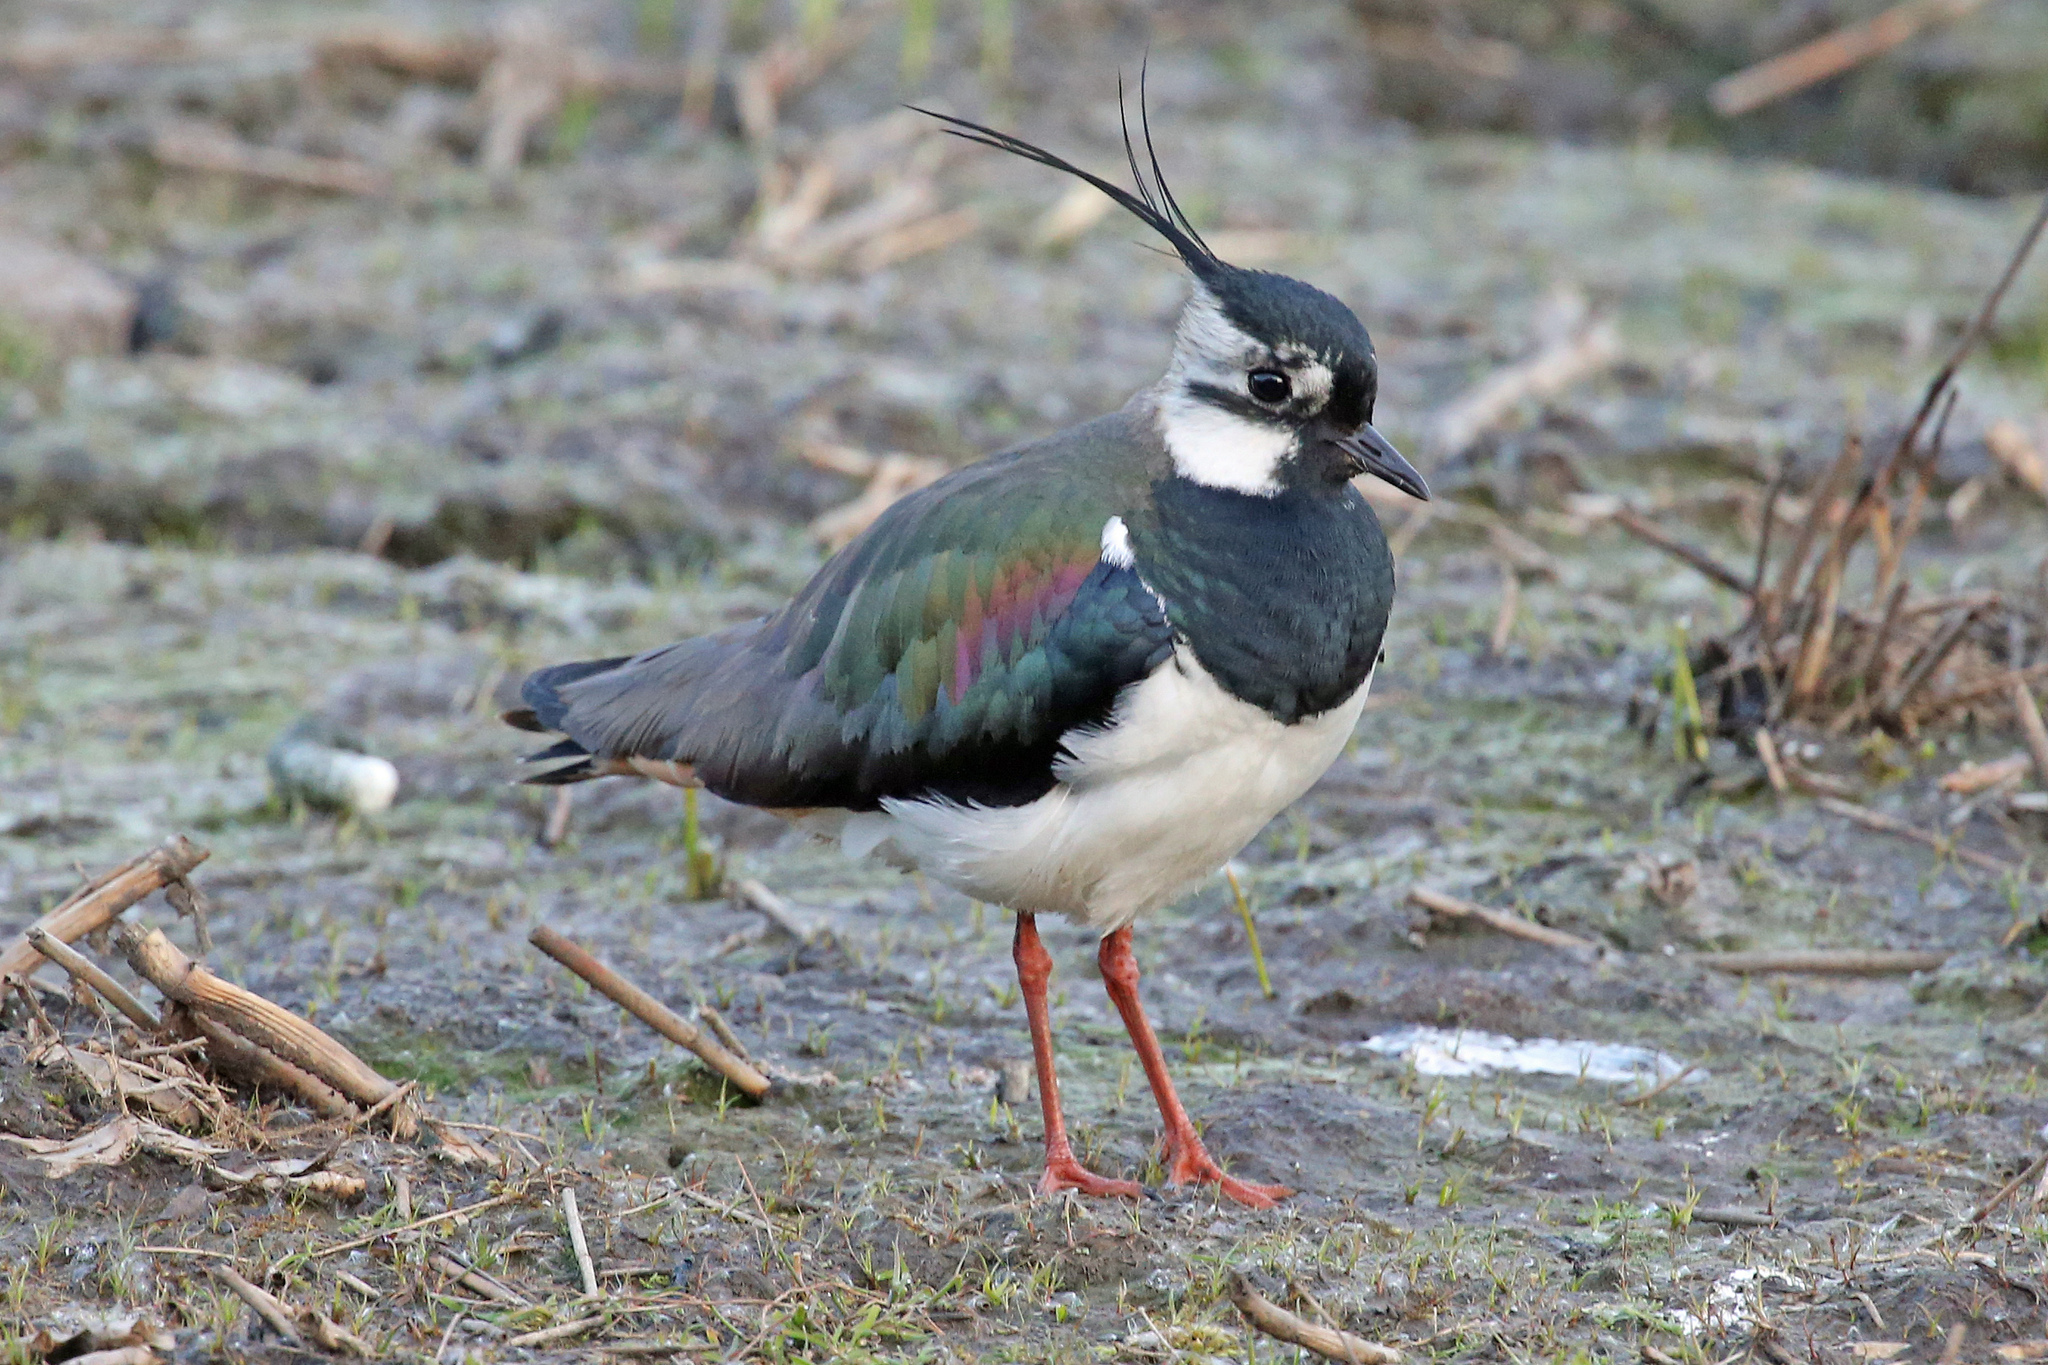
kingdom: Animalia
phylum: Chordata
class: Aves
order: Charadriiformes
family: Charadriidae
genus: Vanellus
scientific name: Vanellus vanellus
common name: Northern lapwing
